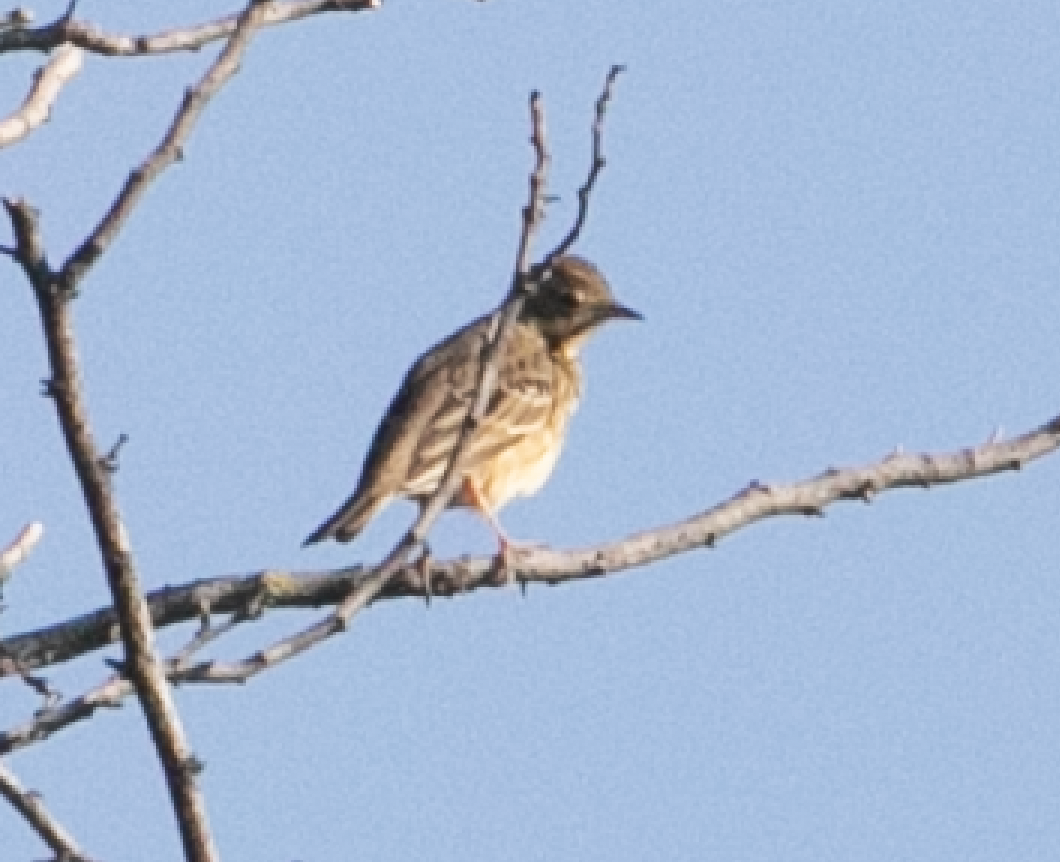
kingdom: Animalia
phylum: Chordata
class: Aves
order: Passeriformes
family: Motacillidae
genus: Anthus
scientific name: Anthus trivialis
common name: Tree pipit
